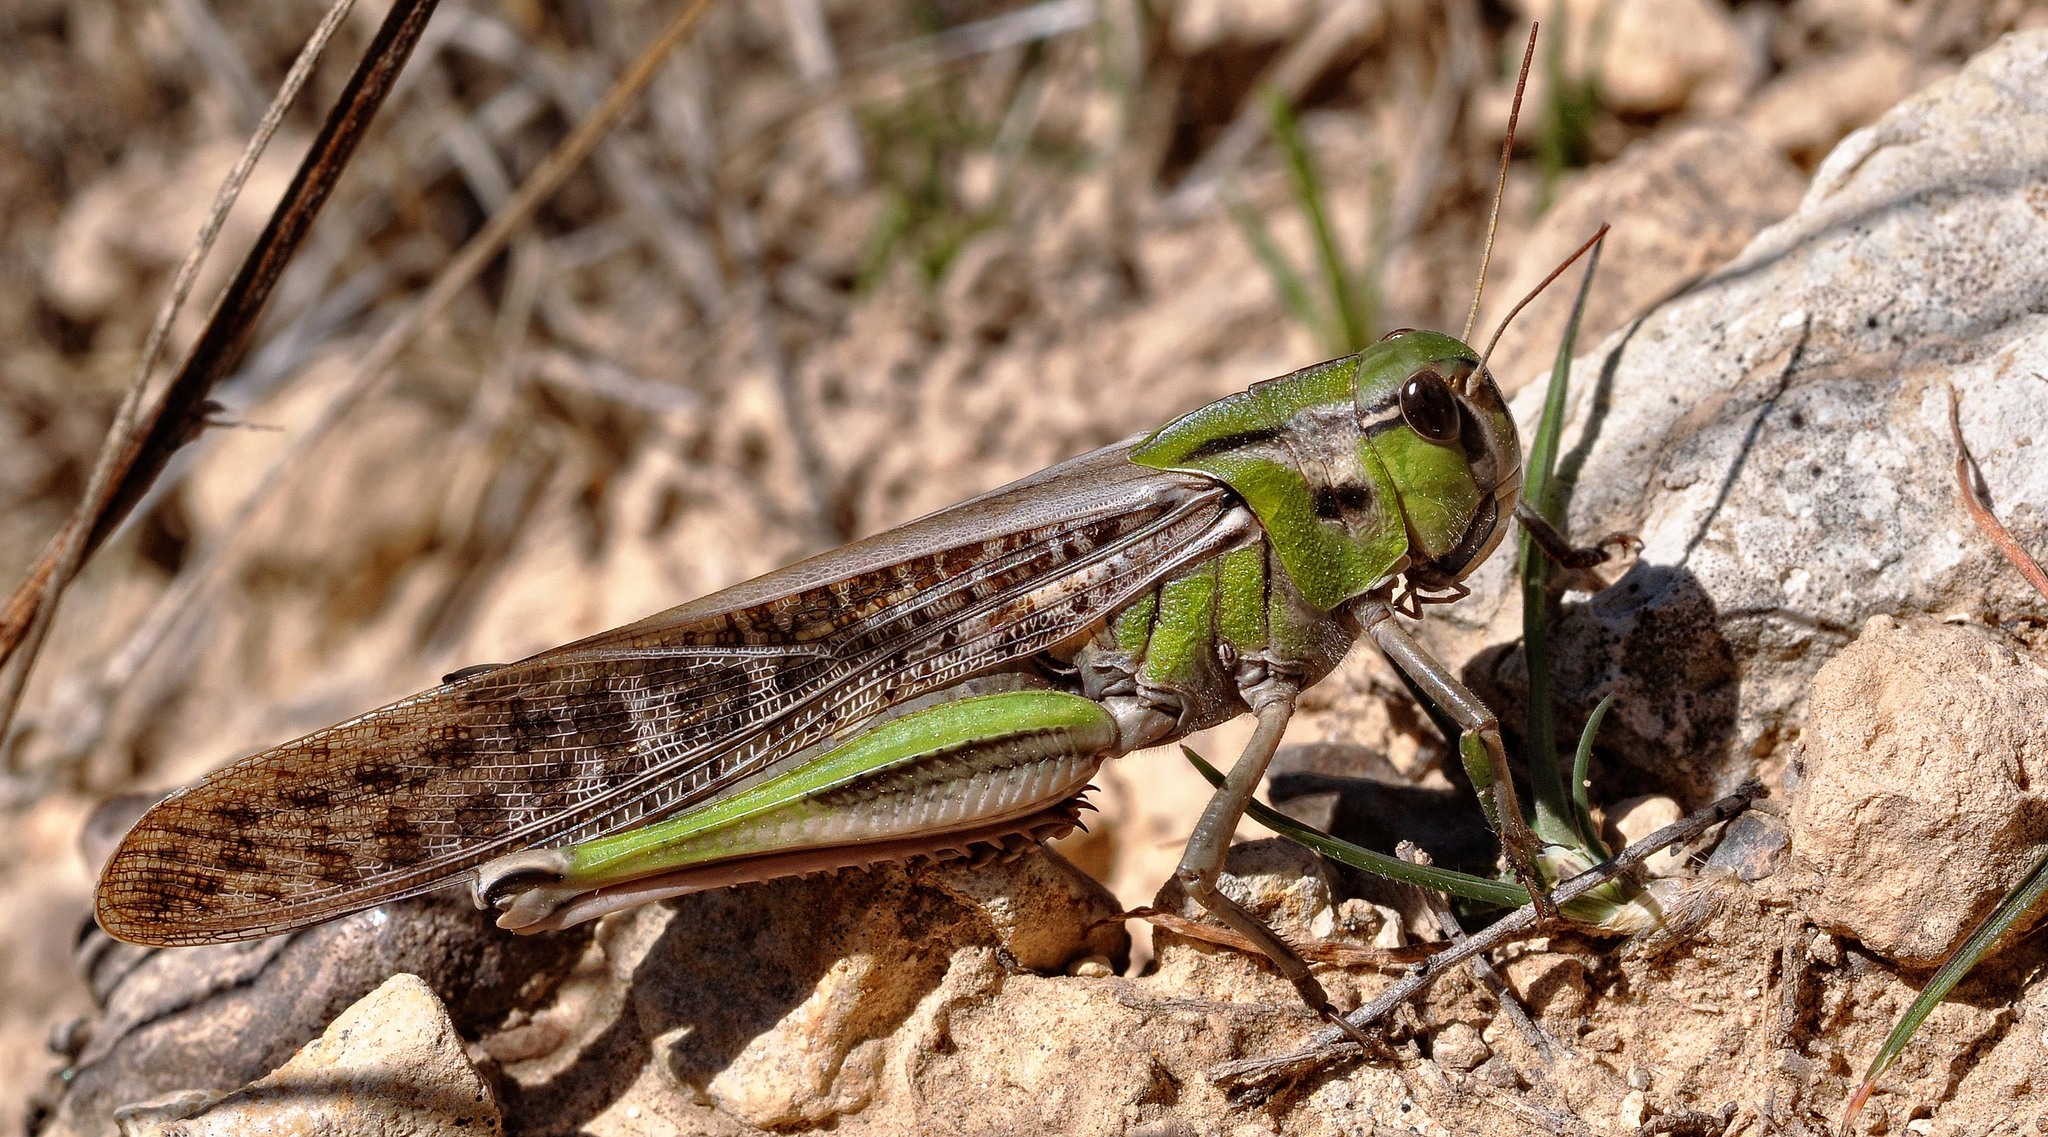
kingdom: Animalia
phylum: Arthropoda
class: Insecta
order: Orthoptera
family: Acrididae
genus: Locusta
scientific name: Locusta migratoria
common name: Migratory locust
